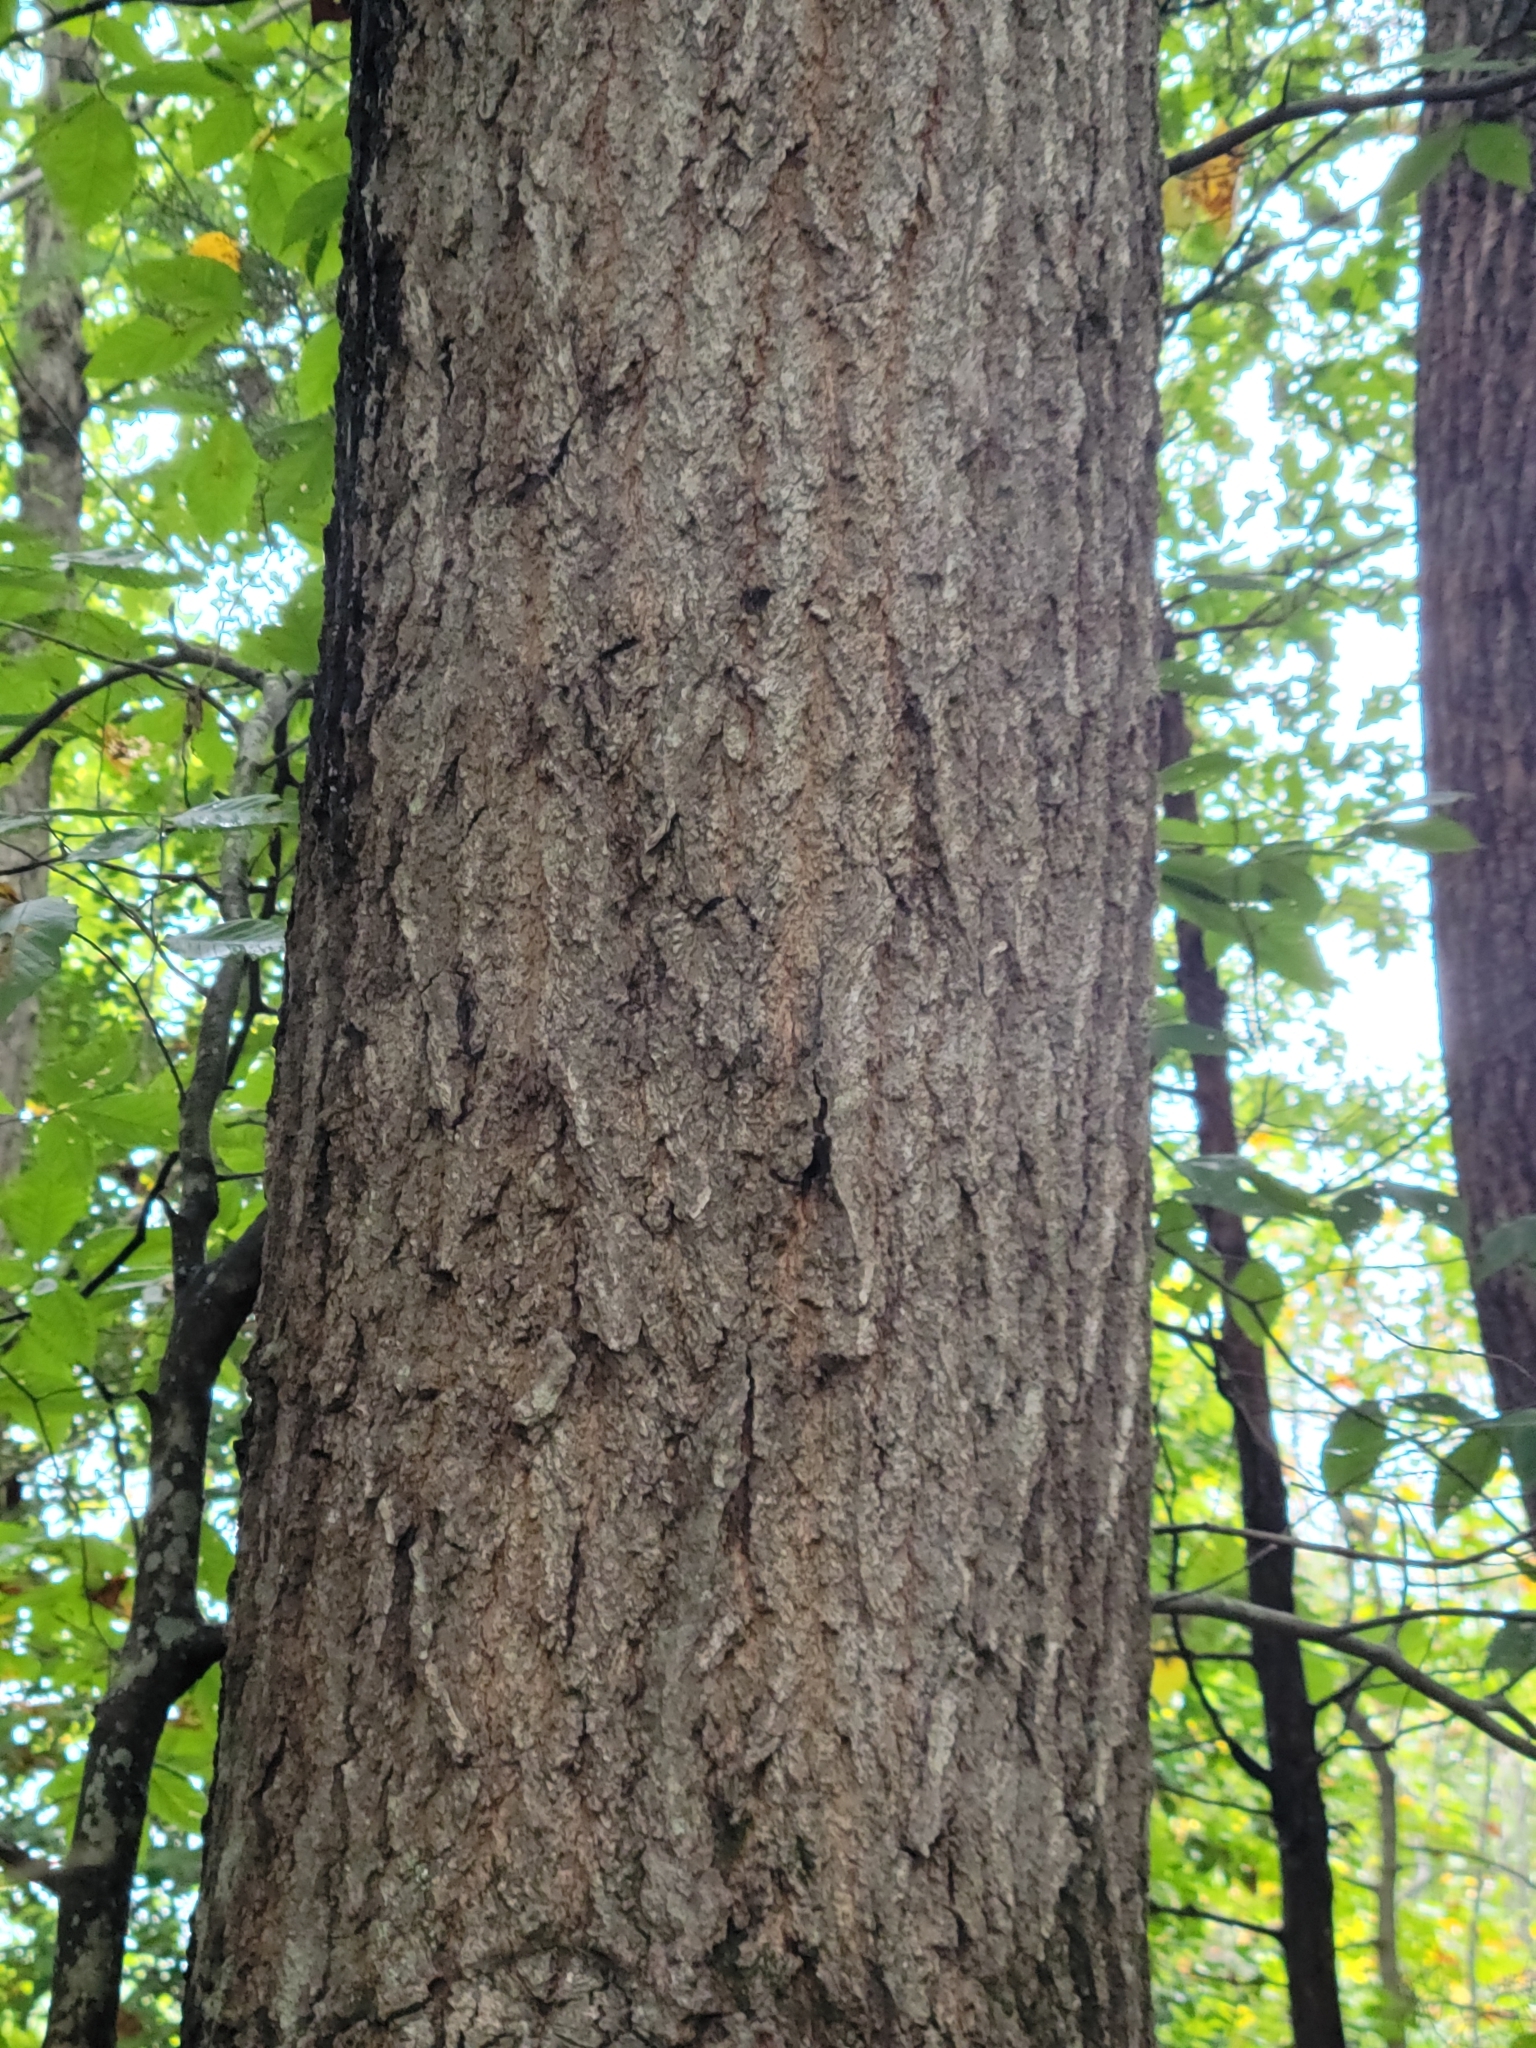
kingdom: Plantae
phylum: Tracheophyta
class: Magnoliopsida
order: Fagales
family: Fagaceae
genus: Quercus
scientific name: Quercus falcata
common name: Southern red oak
